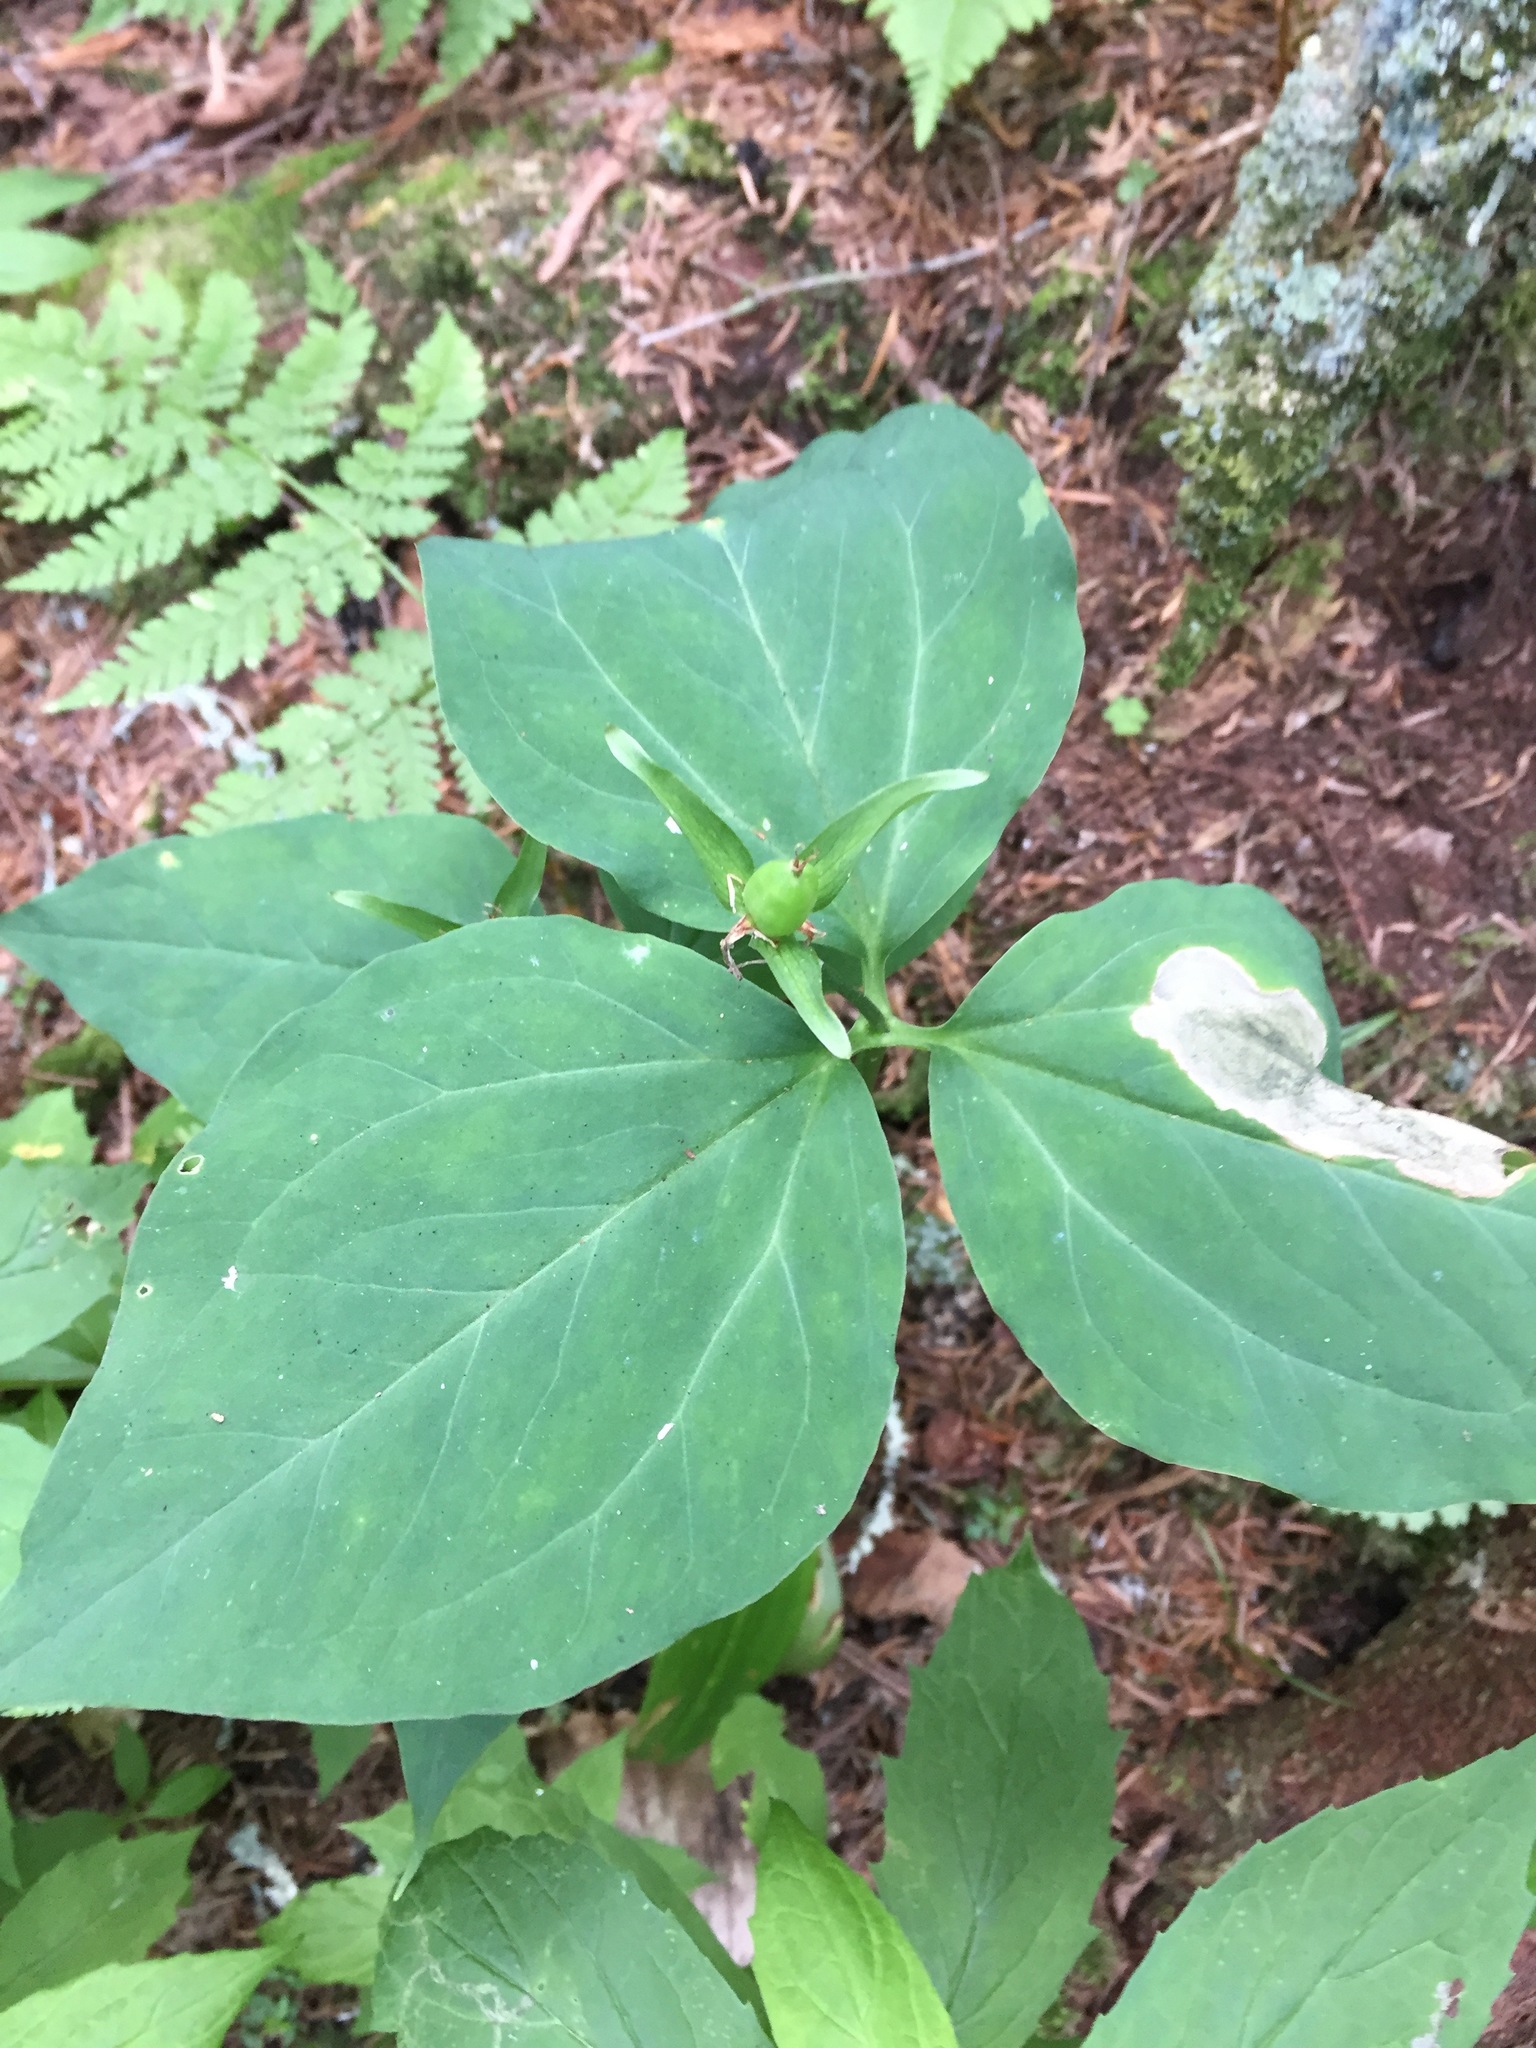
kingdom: Plantae
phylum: Tracheophyta
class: Liliopsida
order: Liliales
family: Melanthiaceae
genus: Trillium
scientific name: Trillium undulatum
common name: Paint trillium
